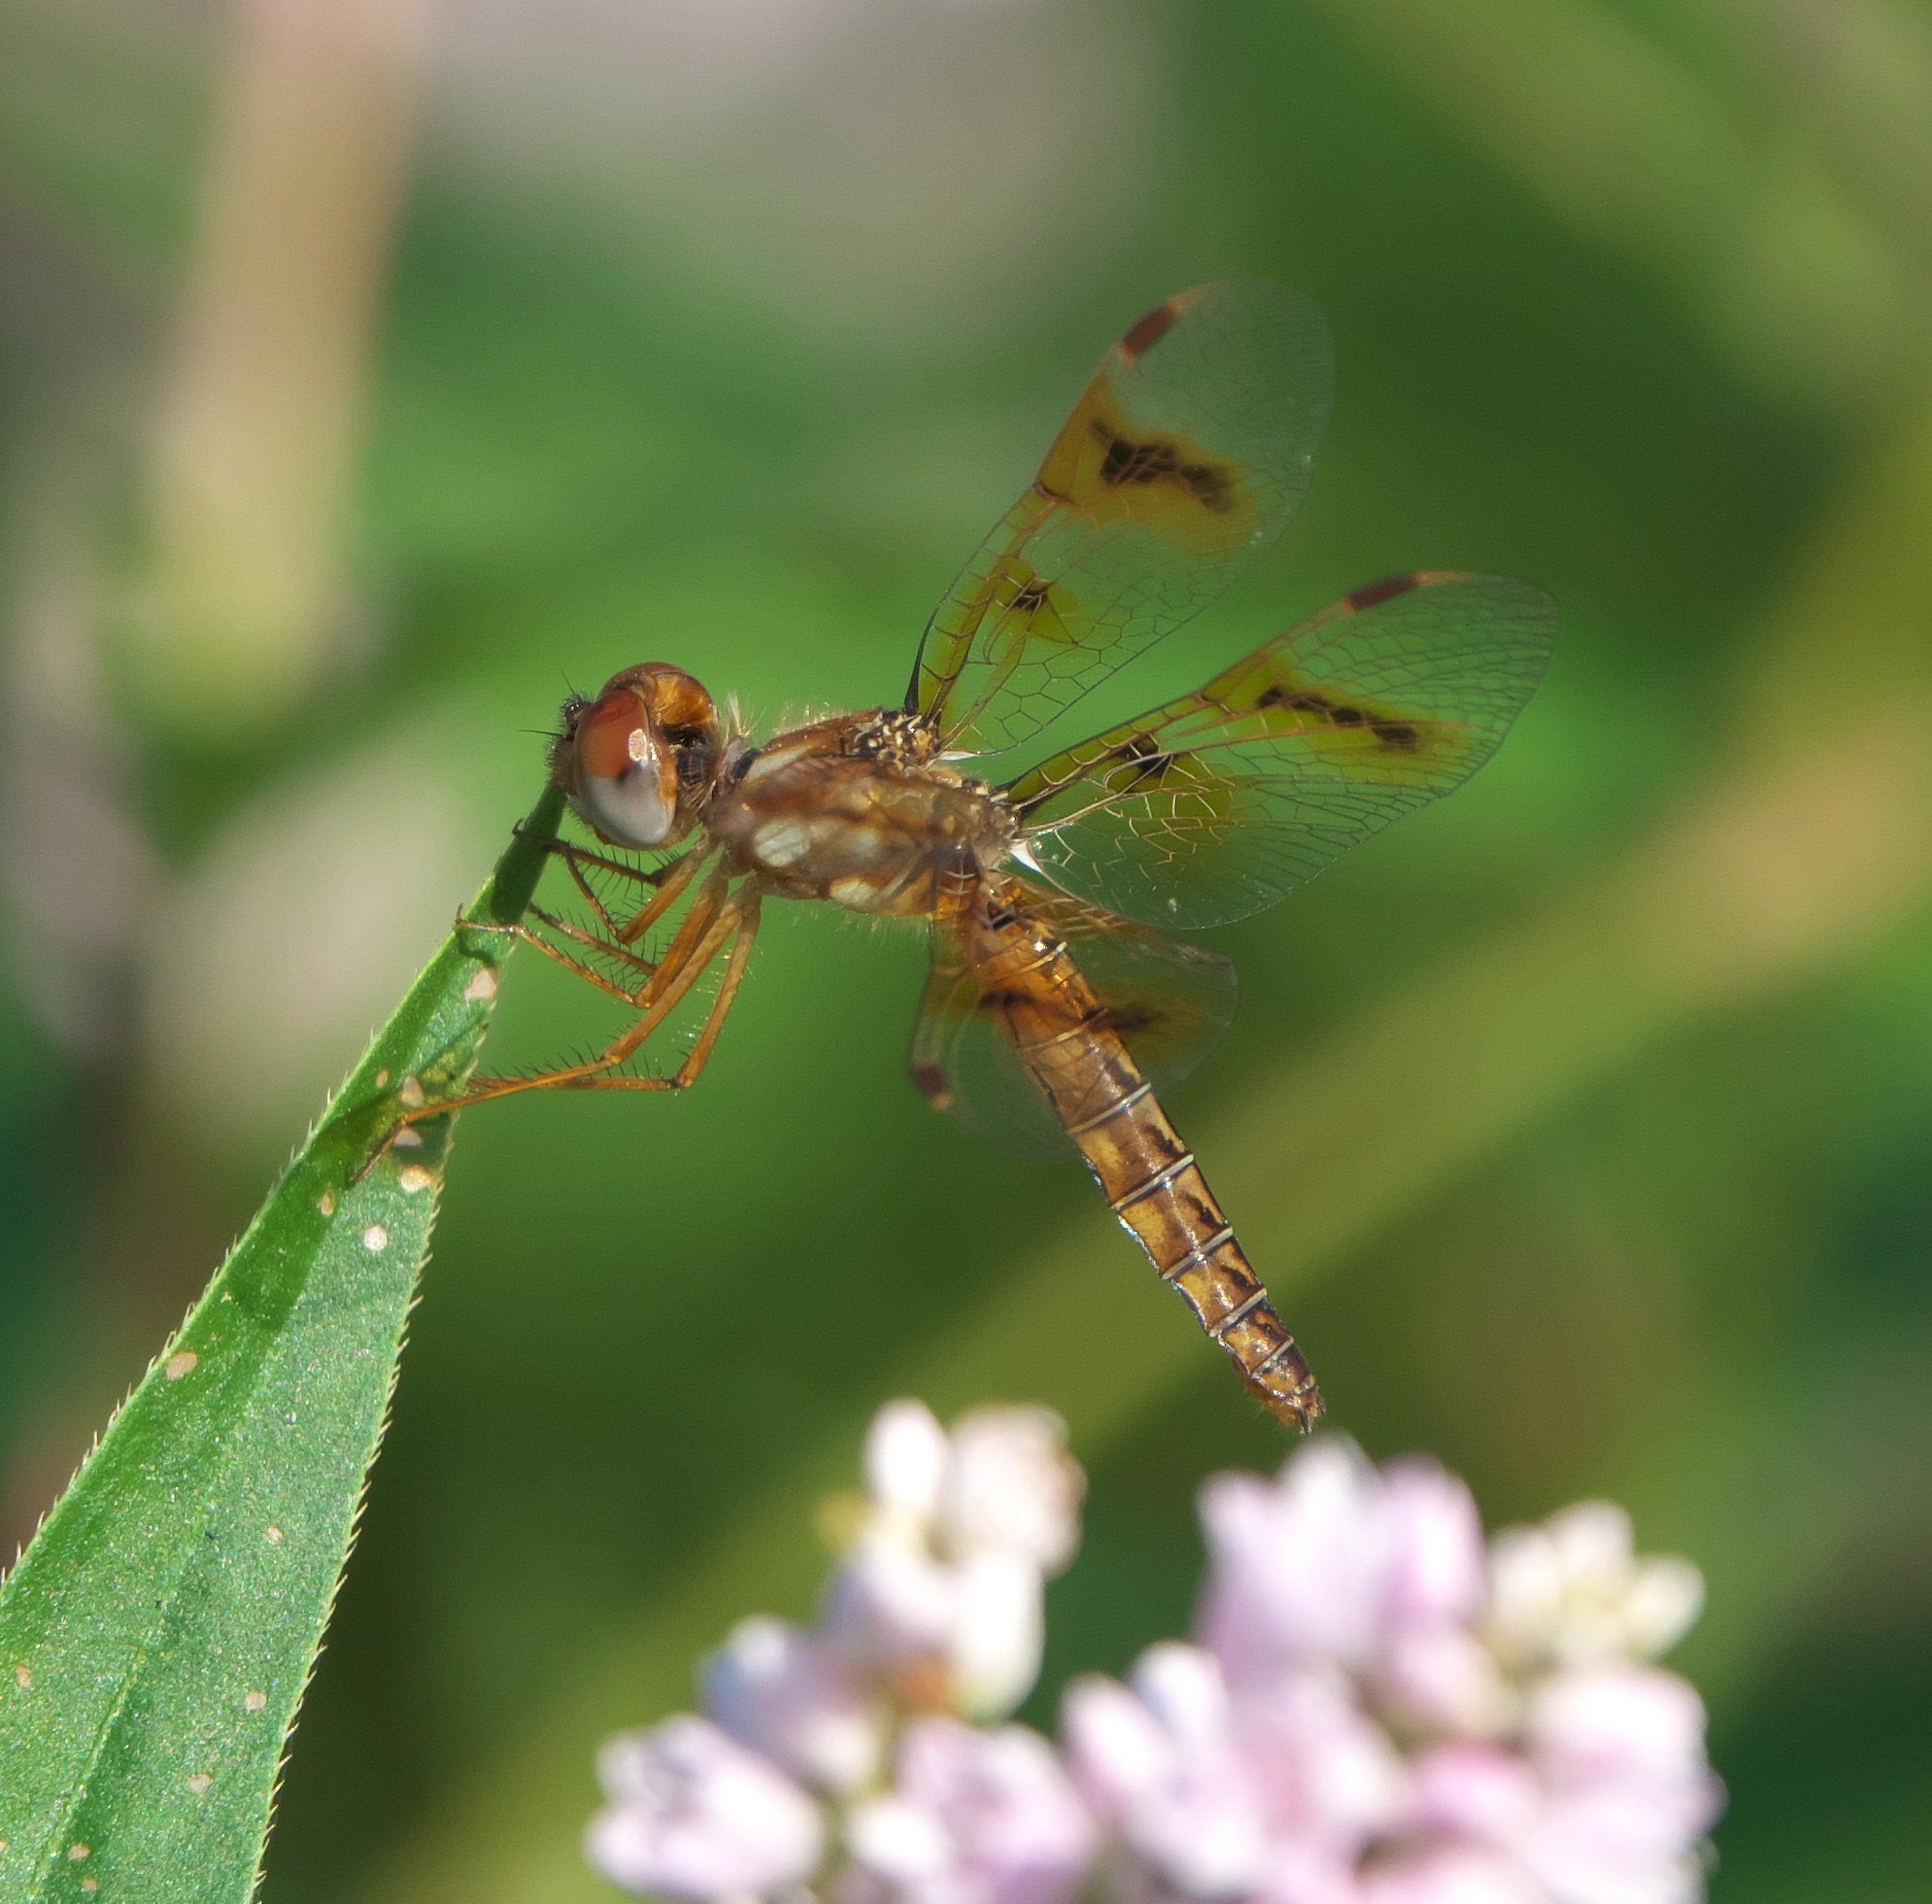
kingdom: Animalia
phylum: Arthropoda
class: Insecta
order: Odonata
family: Libellulidae
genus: Perithemis
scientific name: Perithemis tenera
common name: Eastern amberwing
